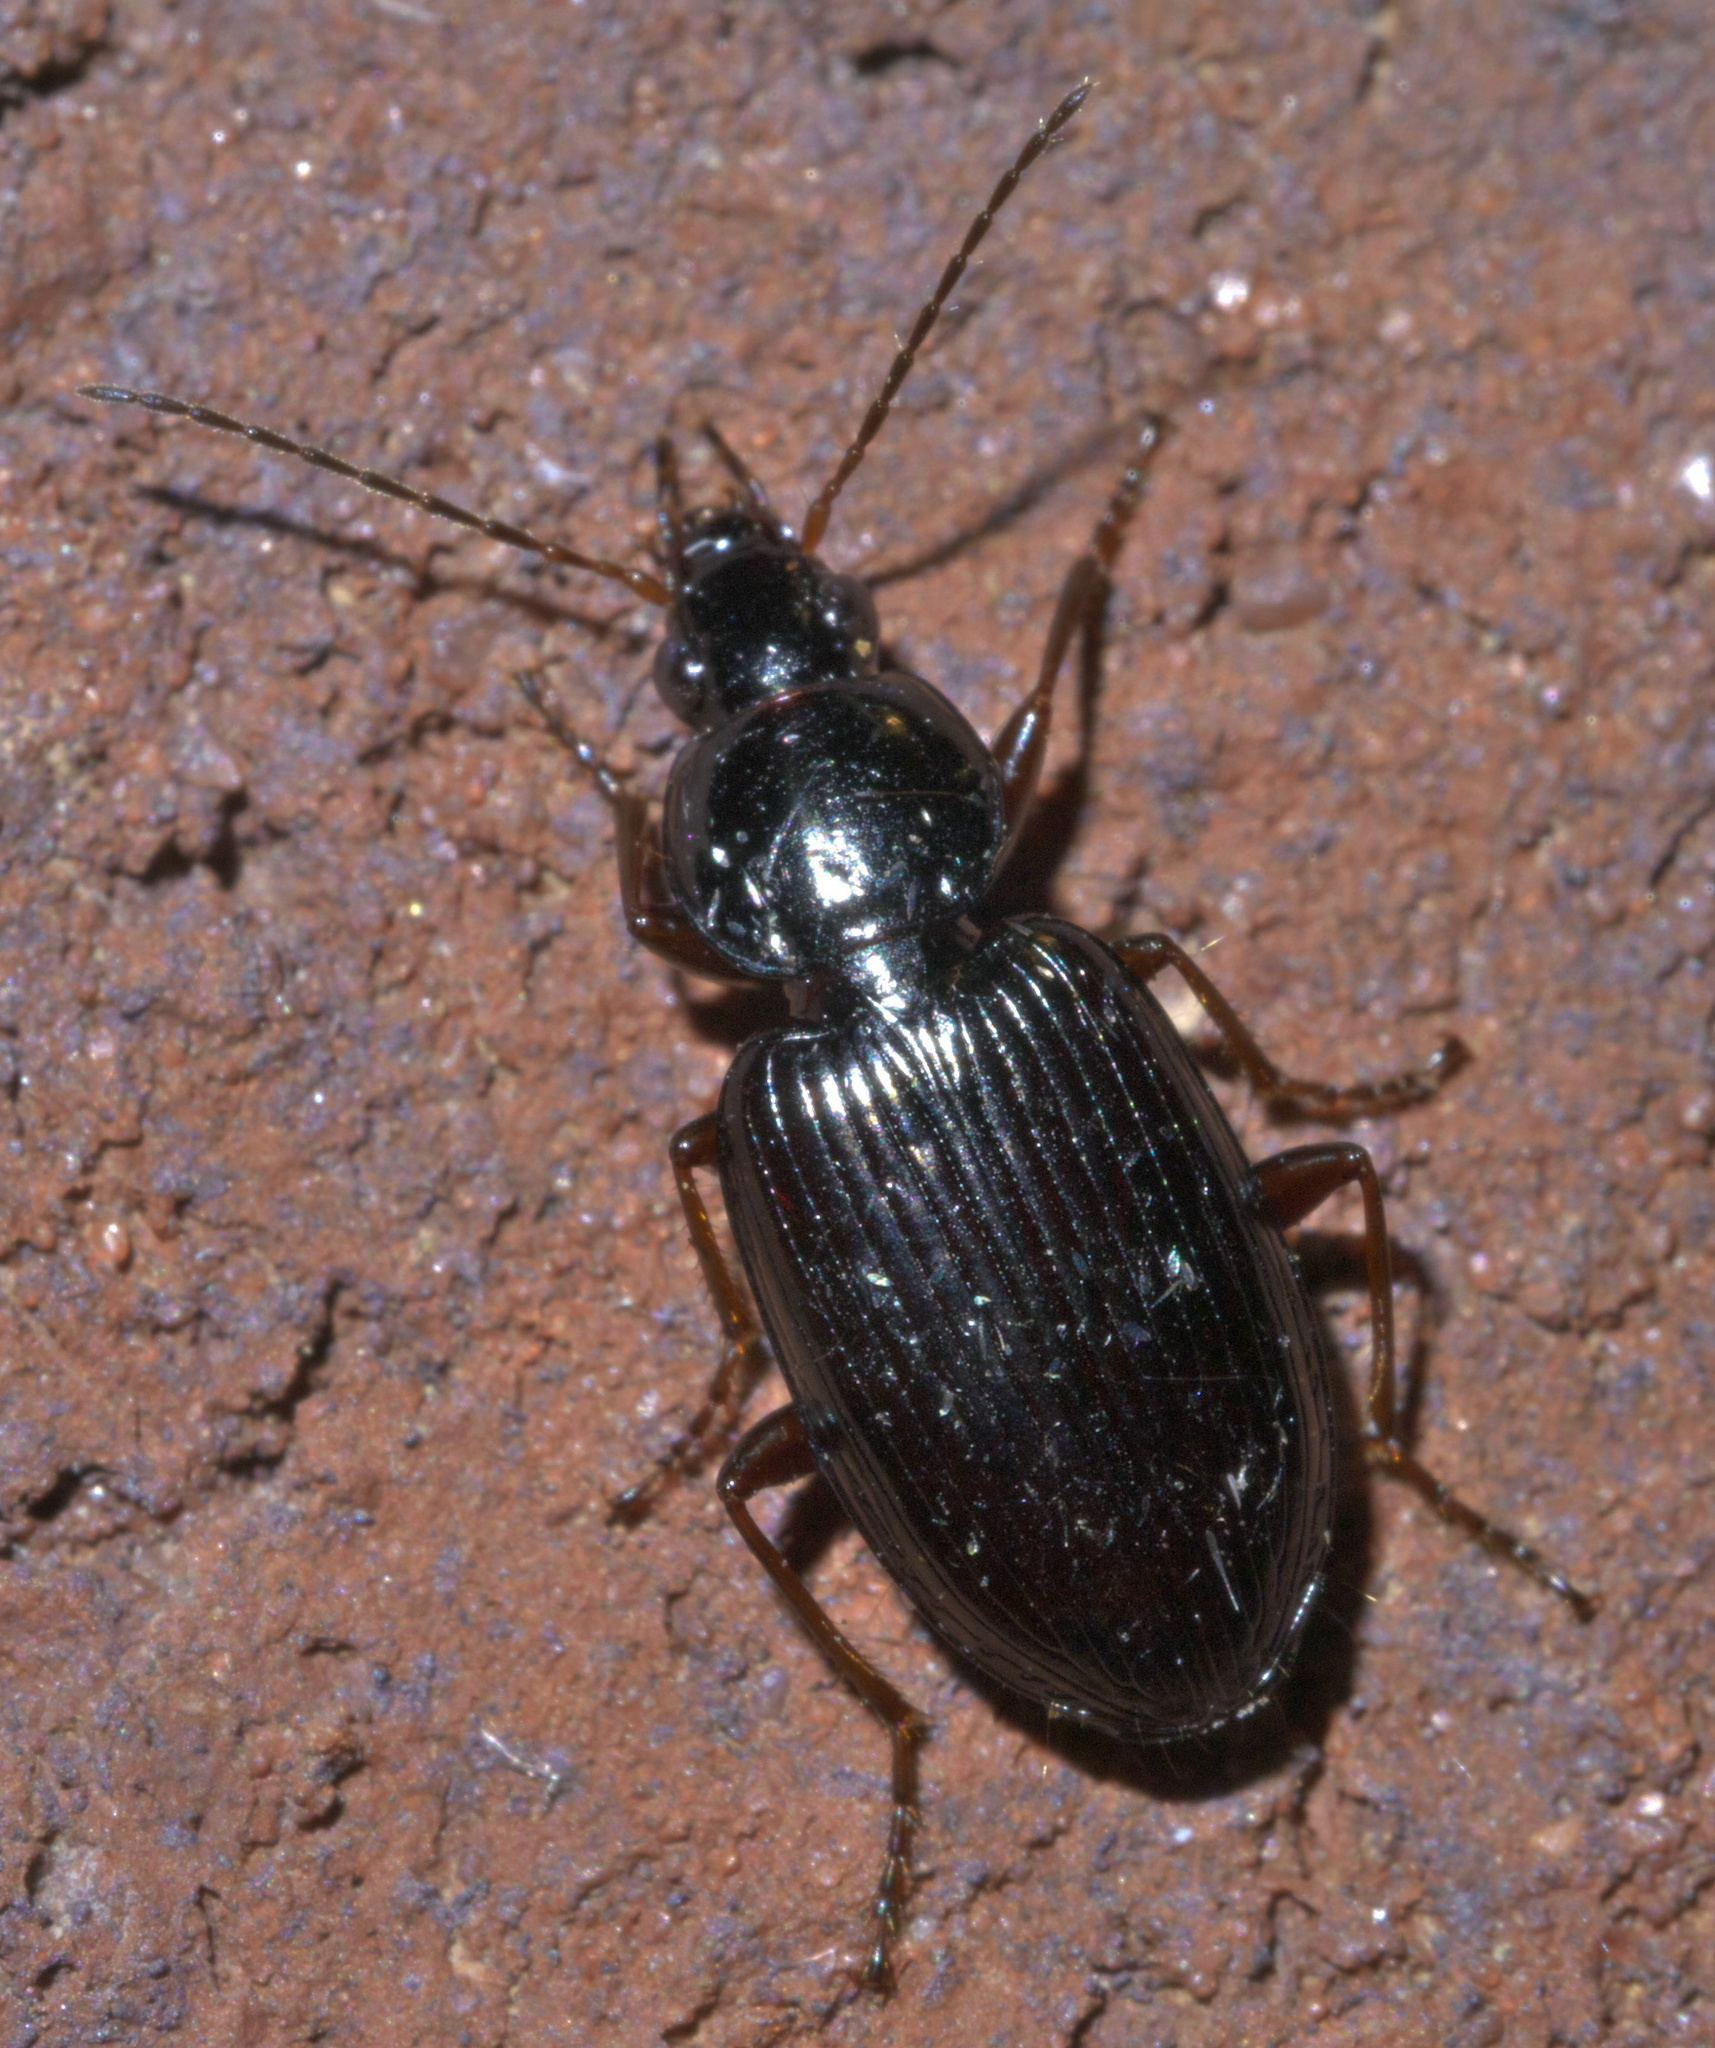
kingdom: Animalia
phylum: Arthropoda
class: Insecta
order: Coleoptera
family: Carabidae
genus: Agonum
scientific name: Agonum punctiforme
